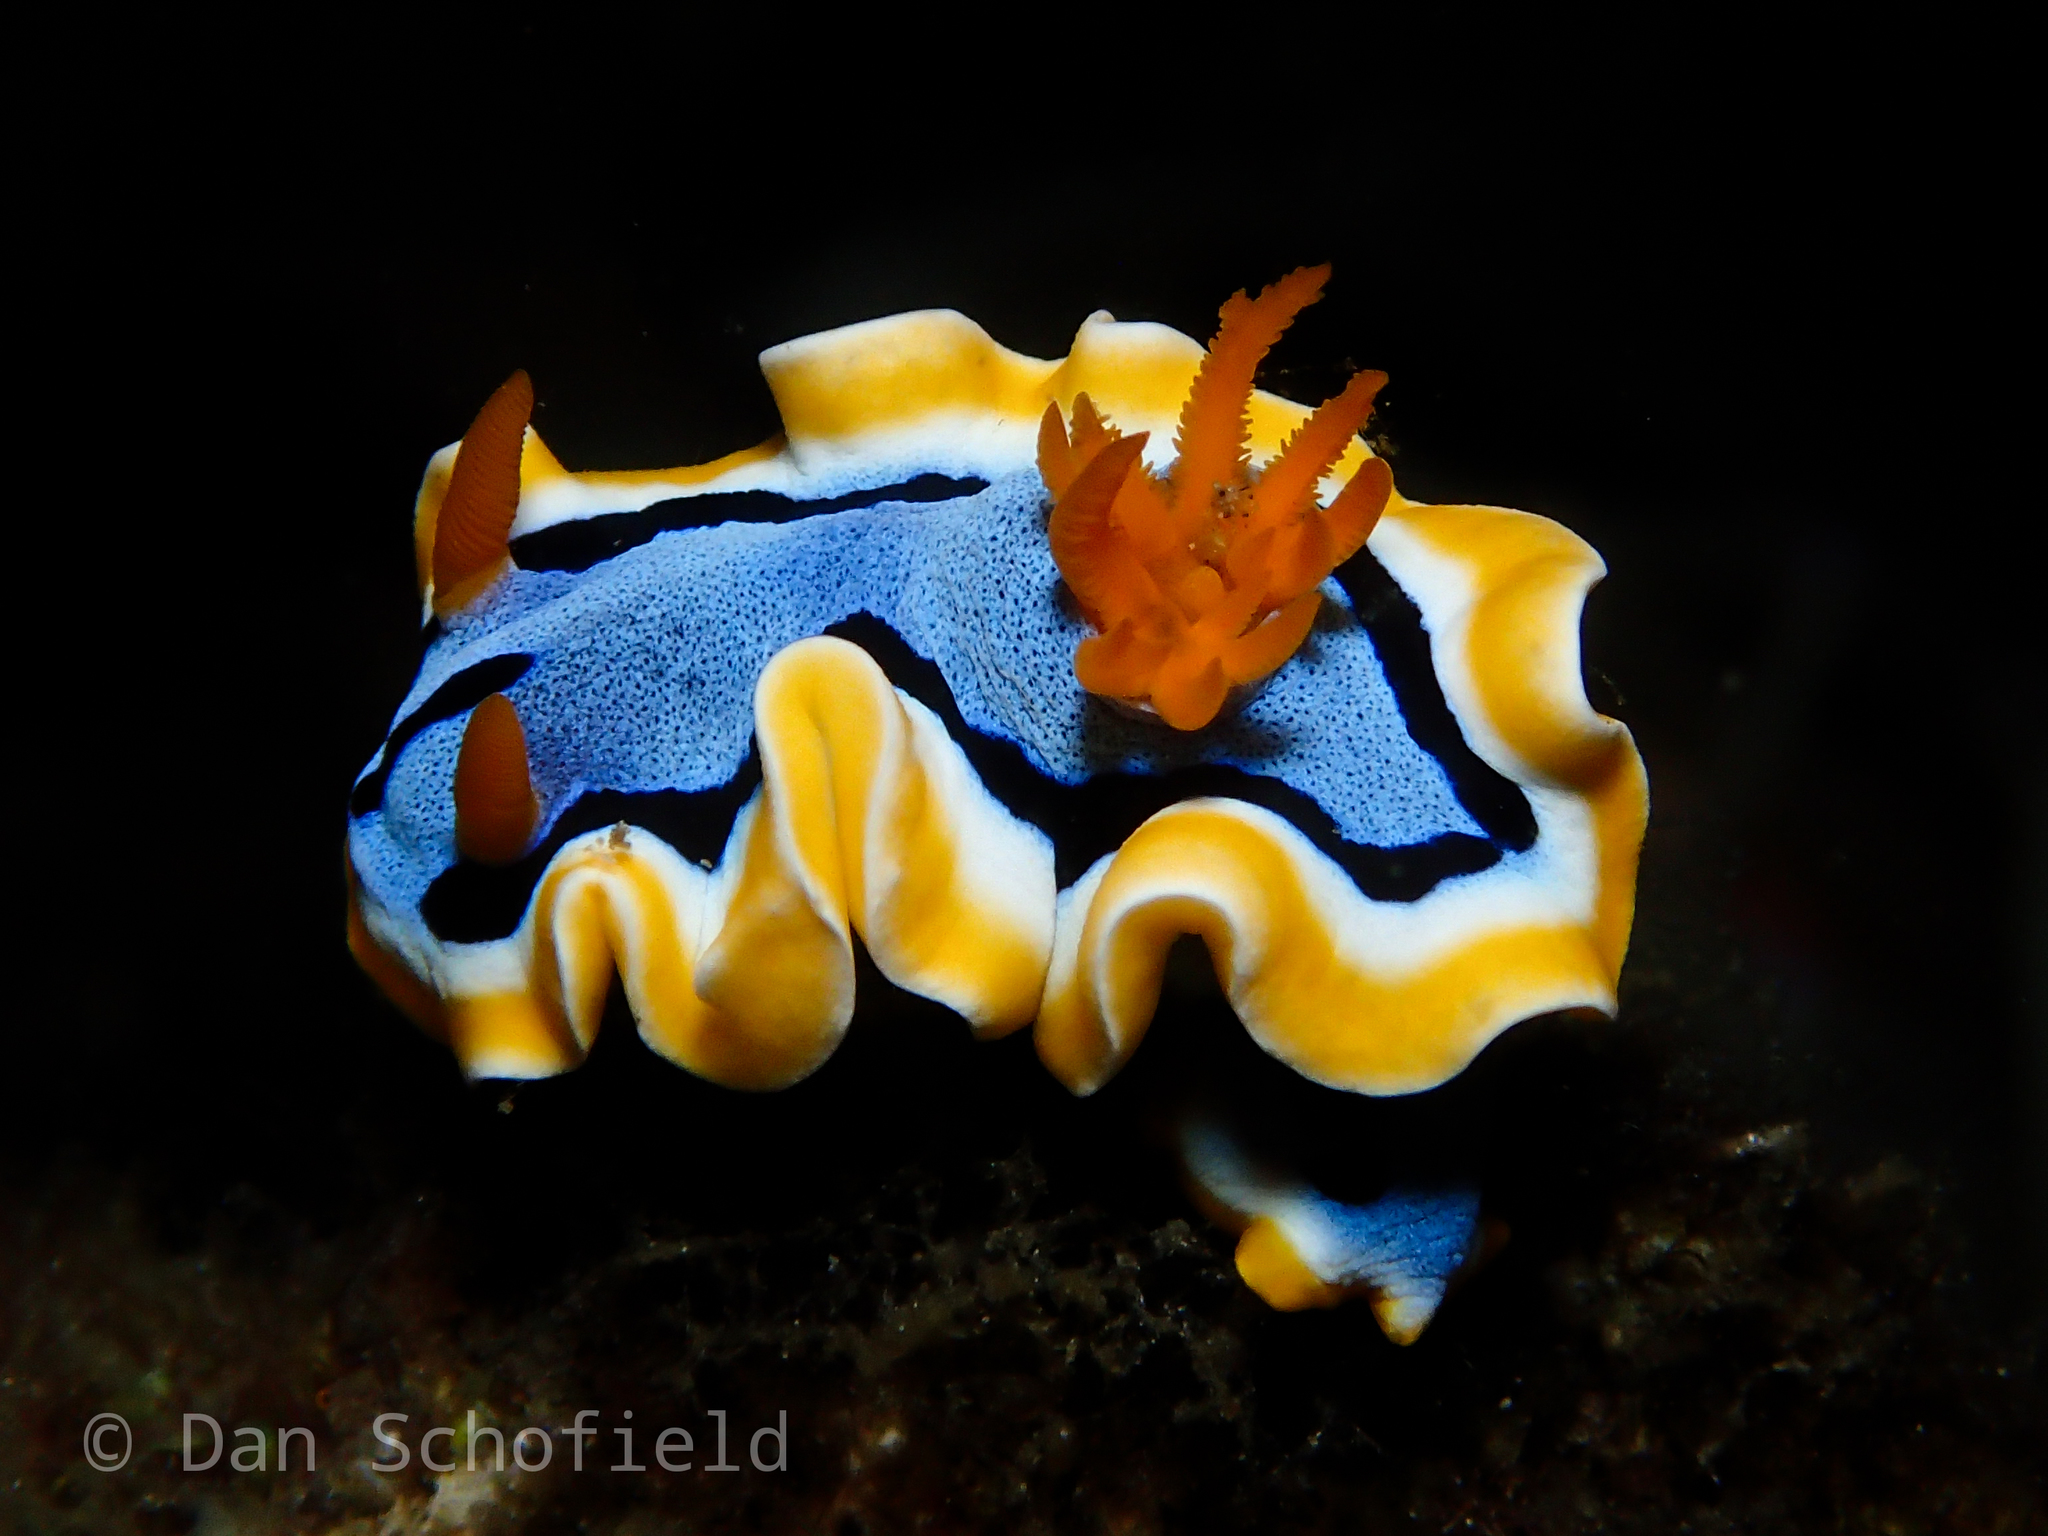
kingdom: Animalia
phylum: Mollusca
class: Gastropoda
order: Nudibranchia
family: Chromodorididae
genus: Chromodoris
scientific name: Chromodoris annae
